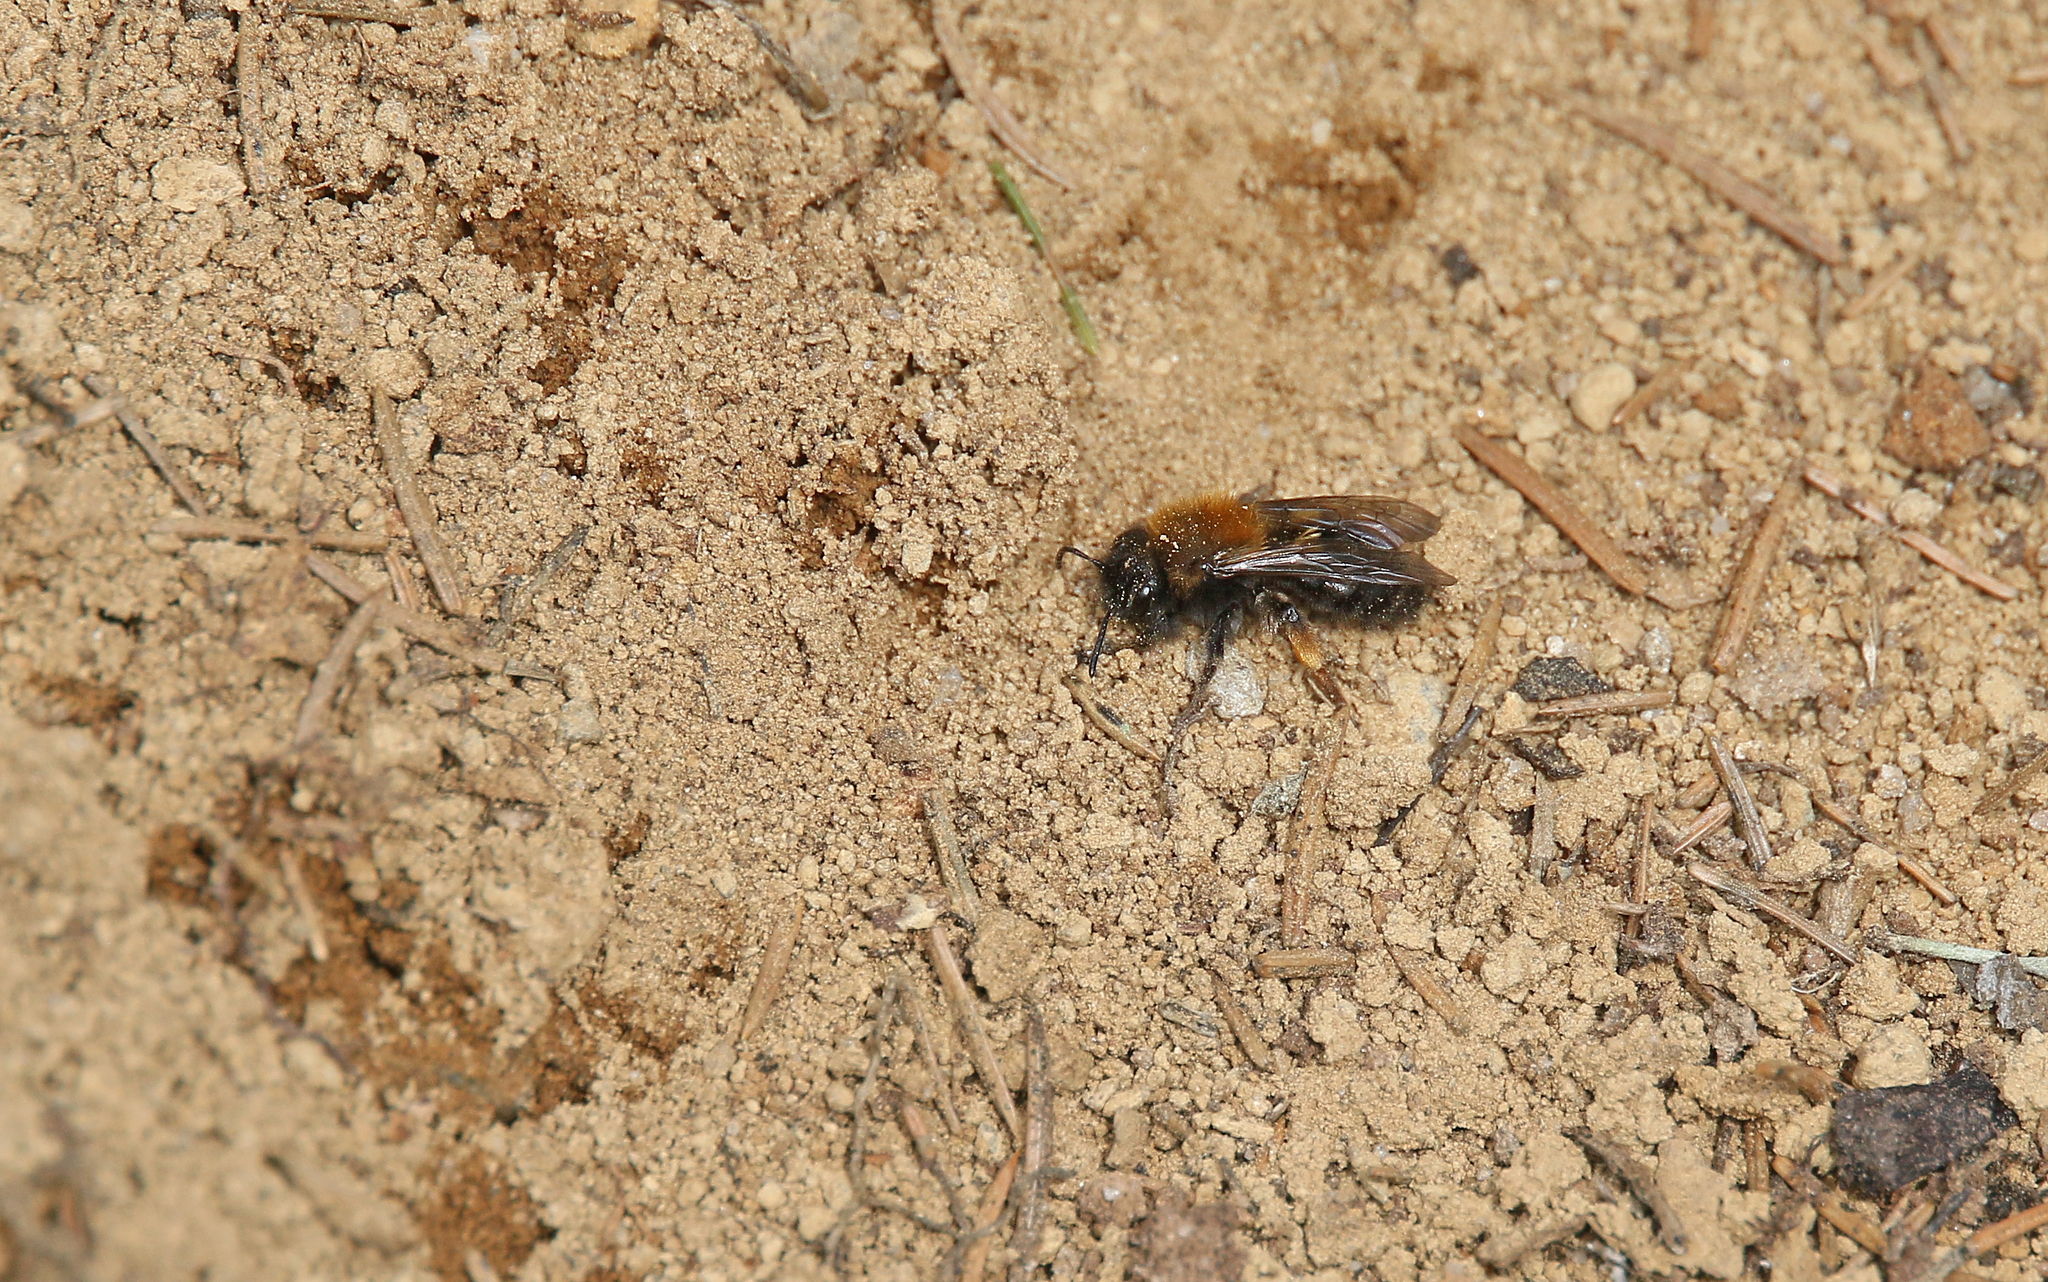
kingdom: Animalia
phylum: Arthropoda
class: Insecta
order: Hymenoptera
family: Andrenidae
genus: Andrena
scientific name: Andrena clarkella
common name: Clarke's mining bee
